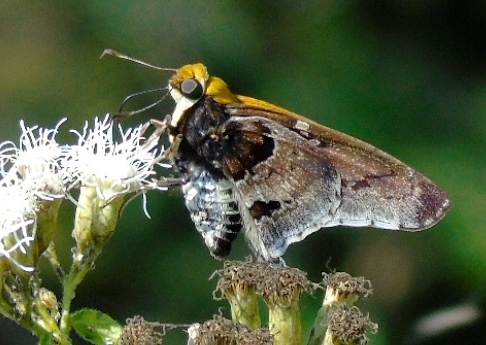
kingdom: Animalia
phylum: Arthropoda
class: Insecta
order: Lepidoptera
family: Hesperiidae
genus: Proteides
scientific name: Proteides mercurius
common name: Mercurial skipper
